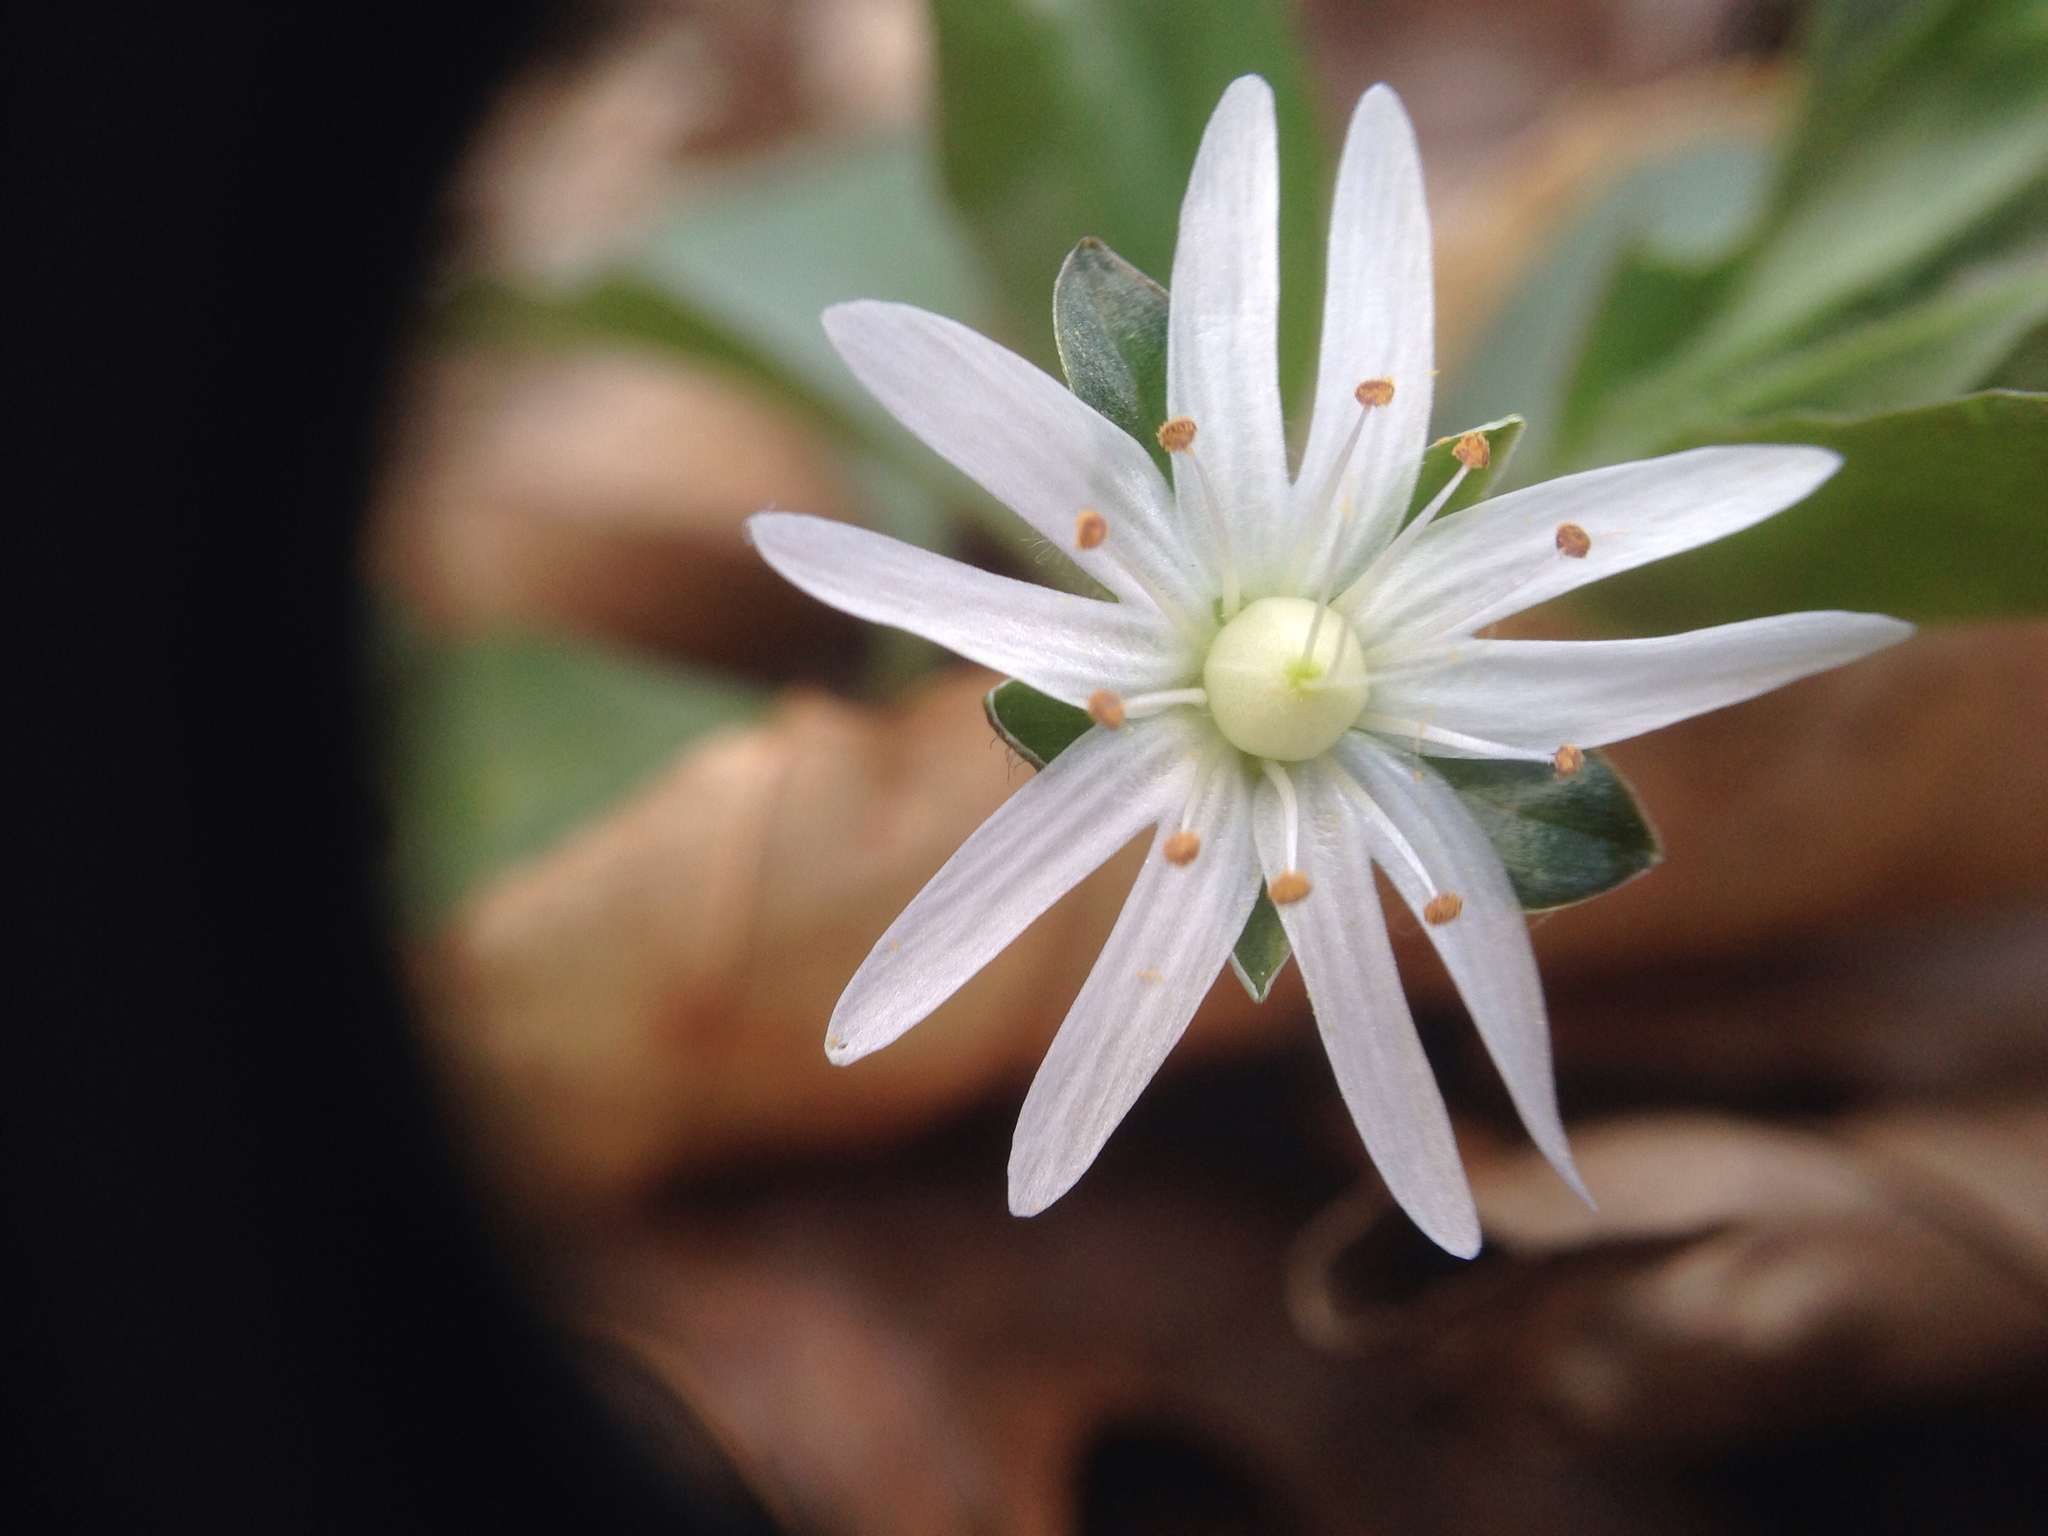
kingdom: Plantae
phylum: Tracheophyta
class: Magnoliopsida
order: Caryophyllales
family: Caryophyllaceae
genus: Stellaria
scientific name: Stellaria pubera
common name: Star chickweed
